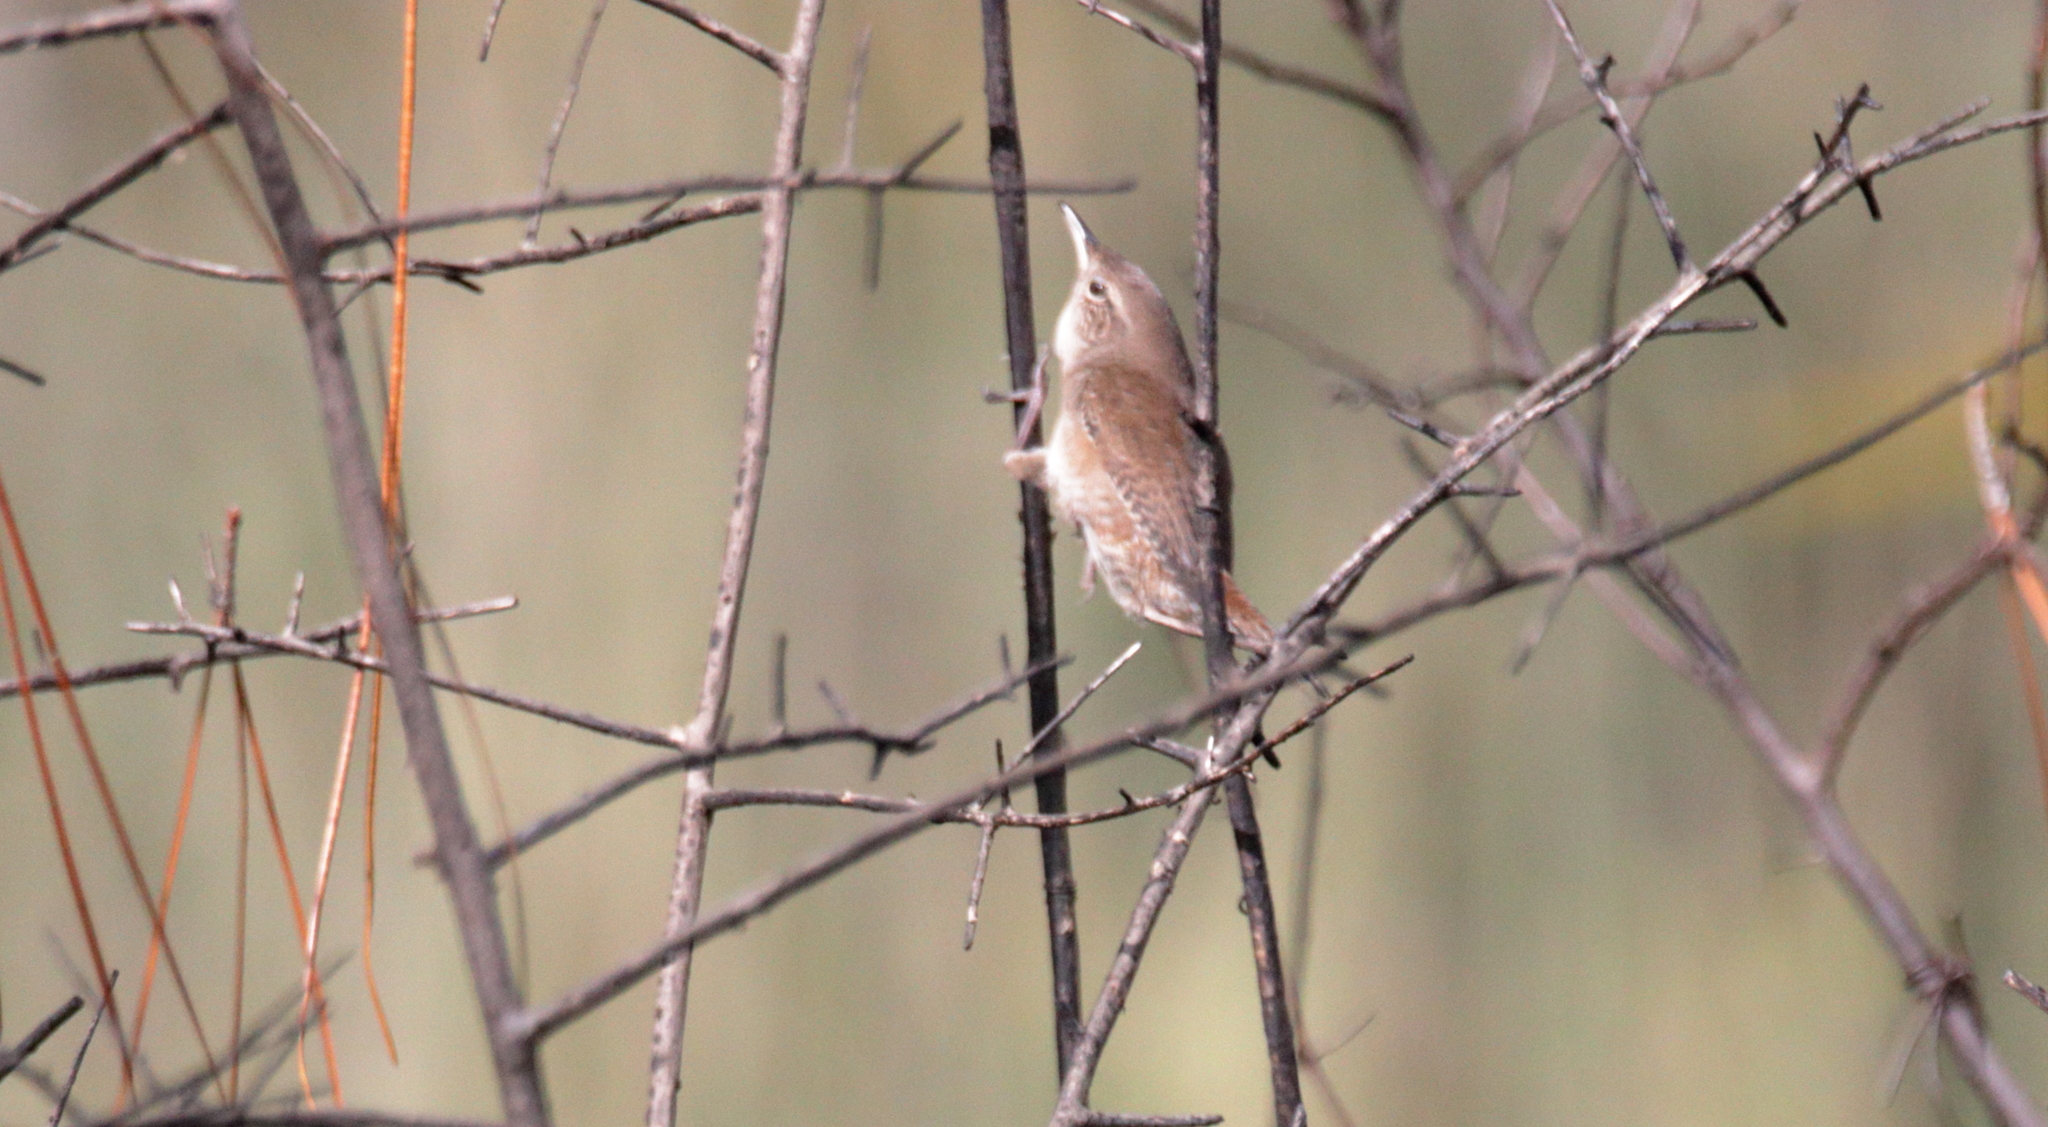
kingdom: Animalia
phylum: Chordata
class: Aves
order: Passeriformes
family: Troglodytidae
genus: Troglodytes
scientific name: Troglodytes aedon
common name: House wren
